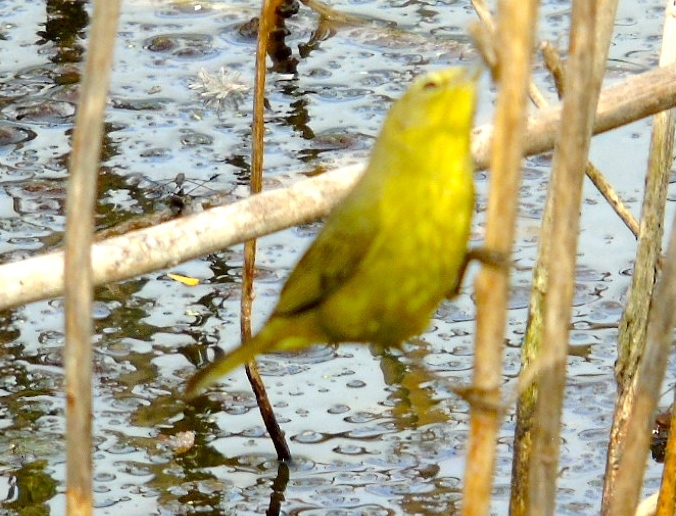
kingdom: Animalia
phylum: Chordata
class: Aves
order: Passeriformes
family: Parulidae
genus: Leiothlypis
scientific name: Leiothlypis celata
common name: Orange-crowned warbler
